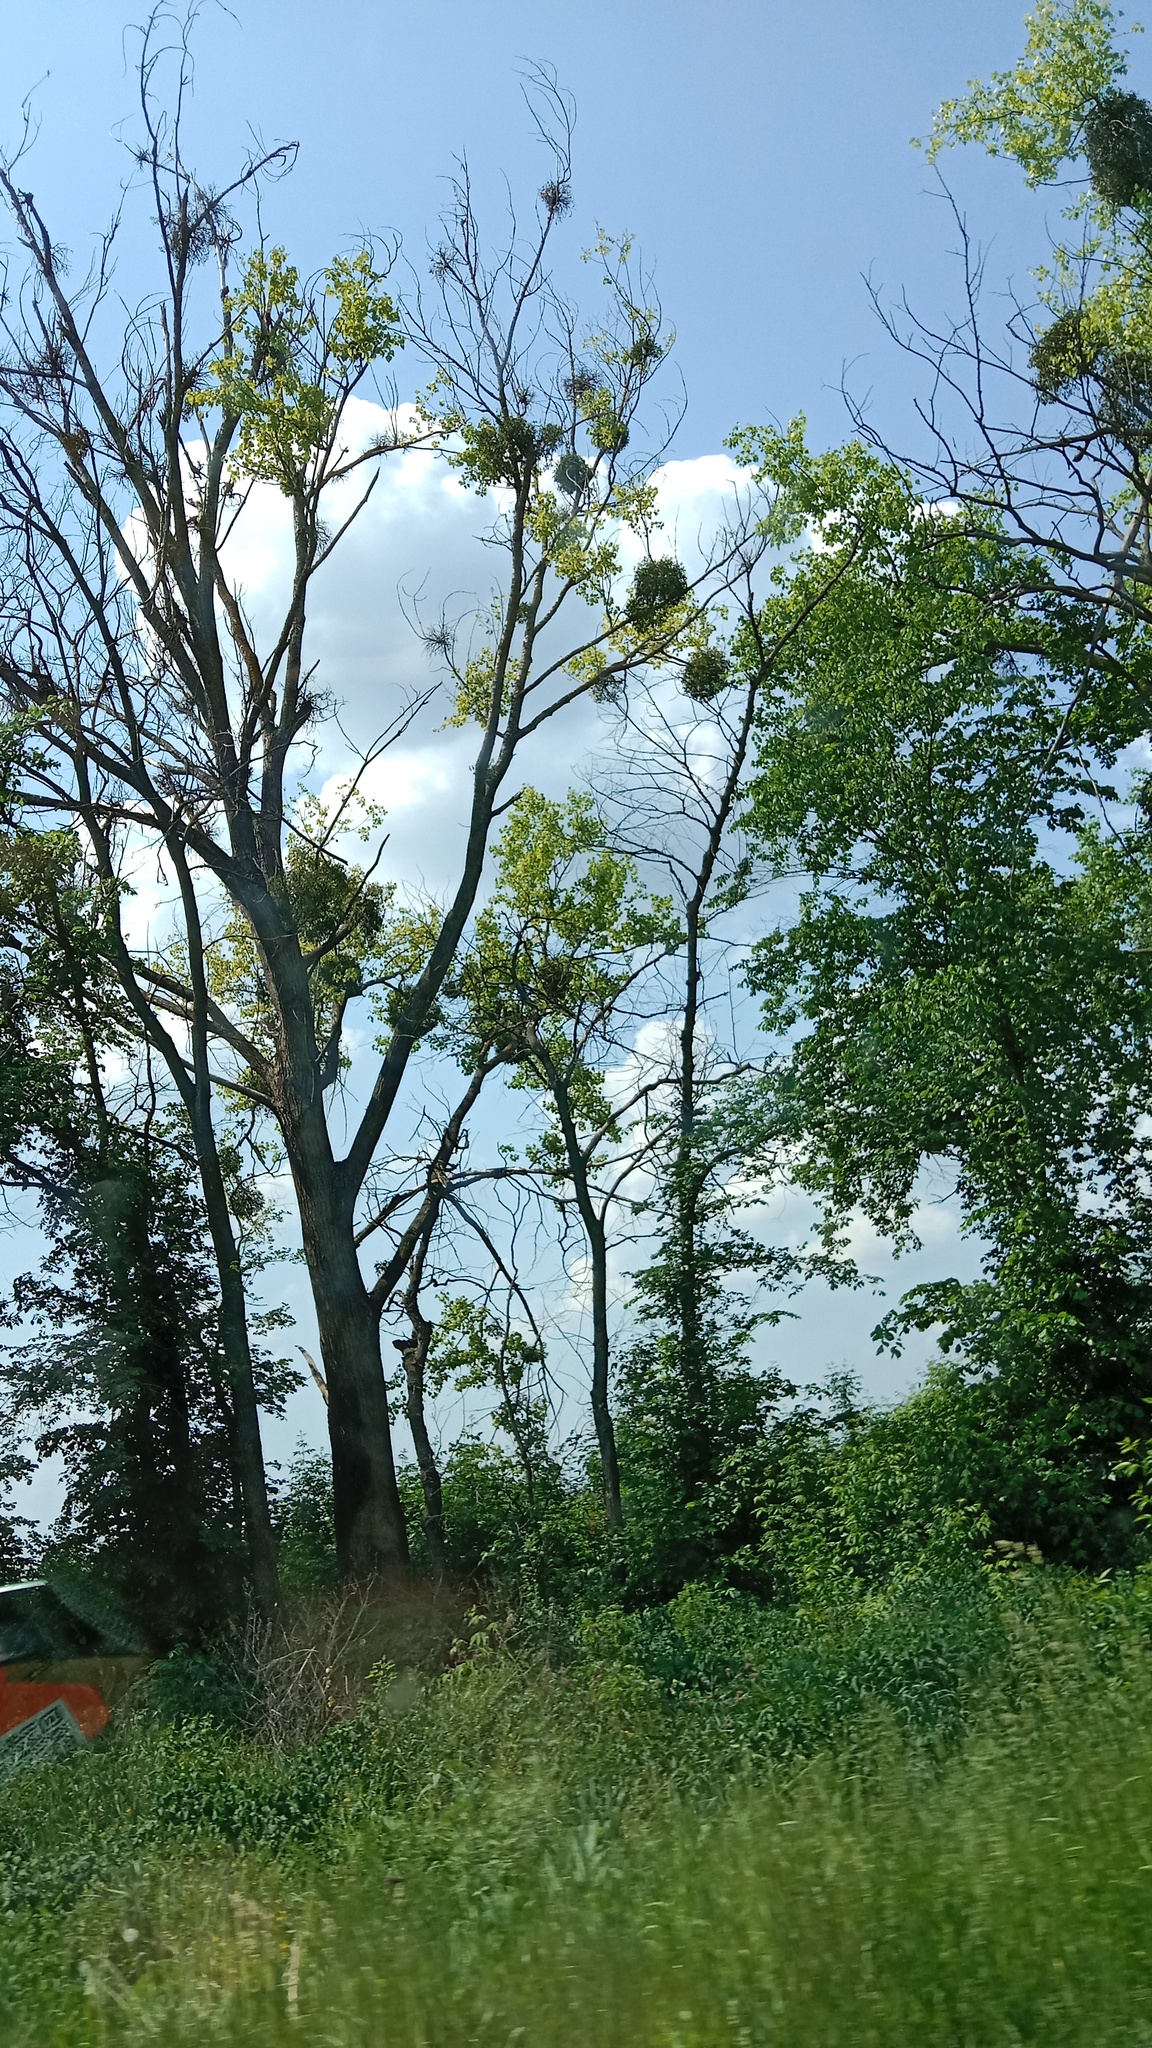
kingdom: Plantae
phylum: Tracheophyta
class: Magnoliopsida
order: Santalales
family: Viscaceae
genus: Viscum
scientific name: Viscum album
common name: Mistletoe
